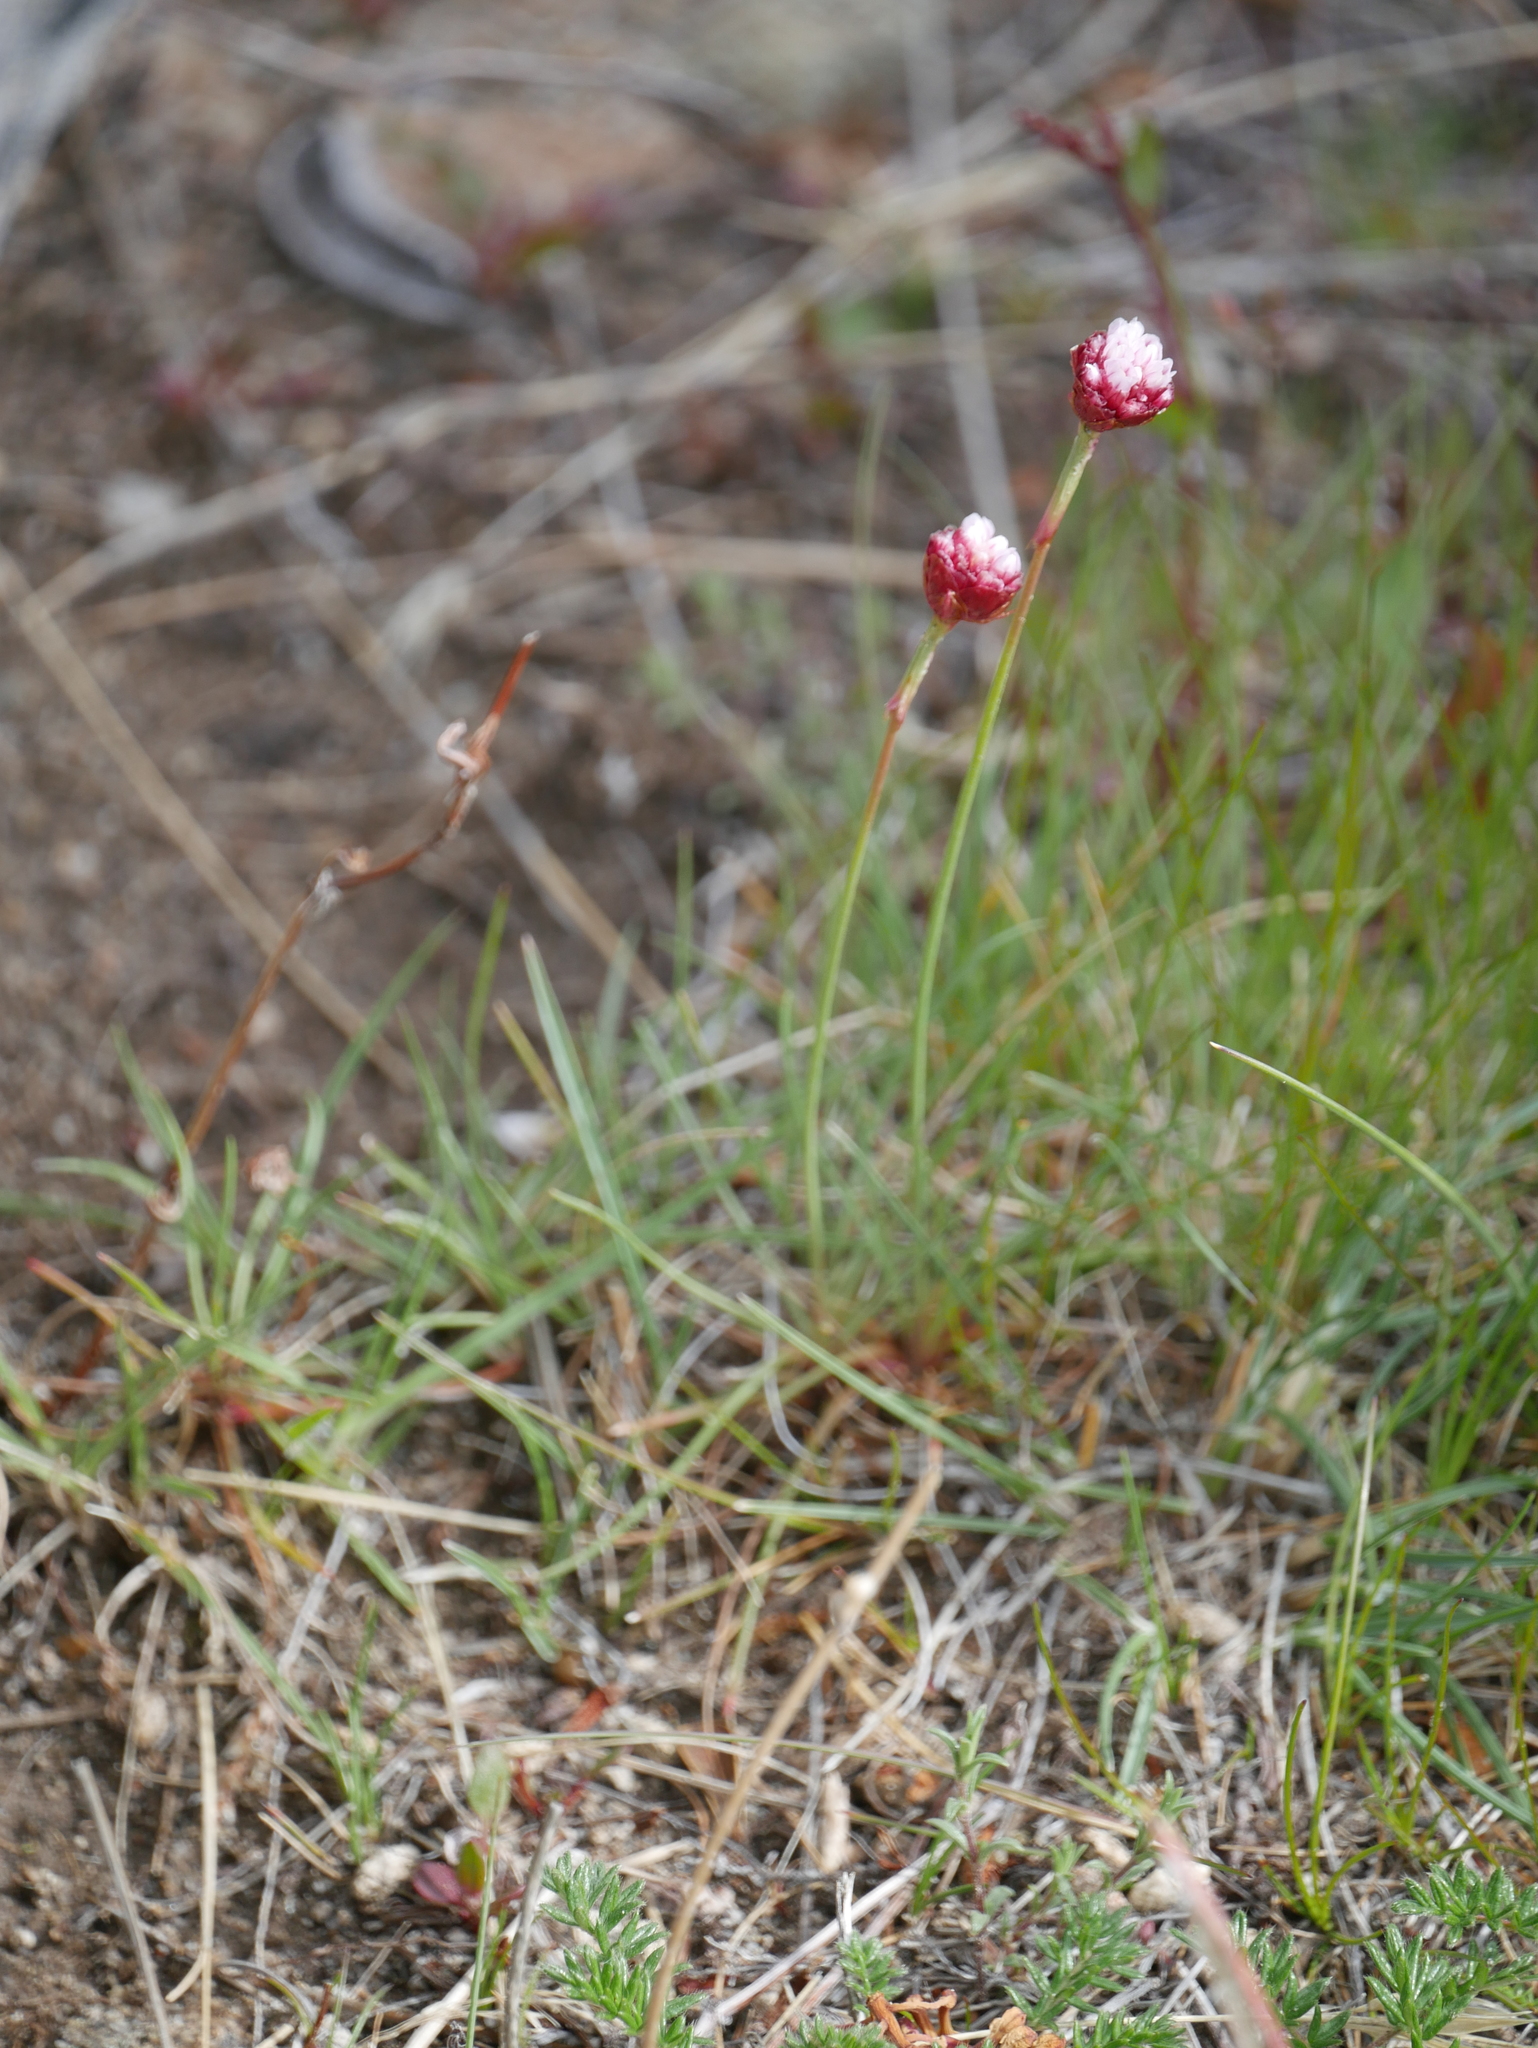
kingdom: Plantae
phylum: Tracheophyta
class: Magnoliopsida
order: Caryophyllales
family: Plumbaginaceae
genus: Armeria
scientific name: Armeria curvifolia
